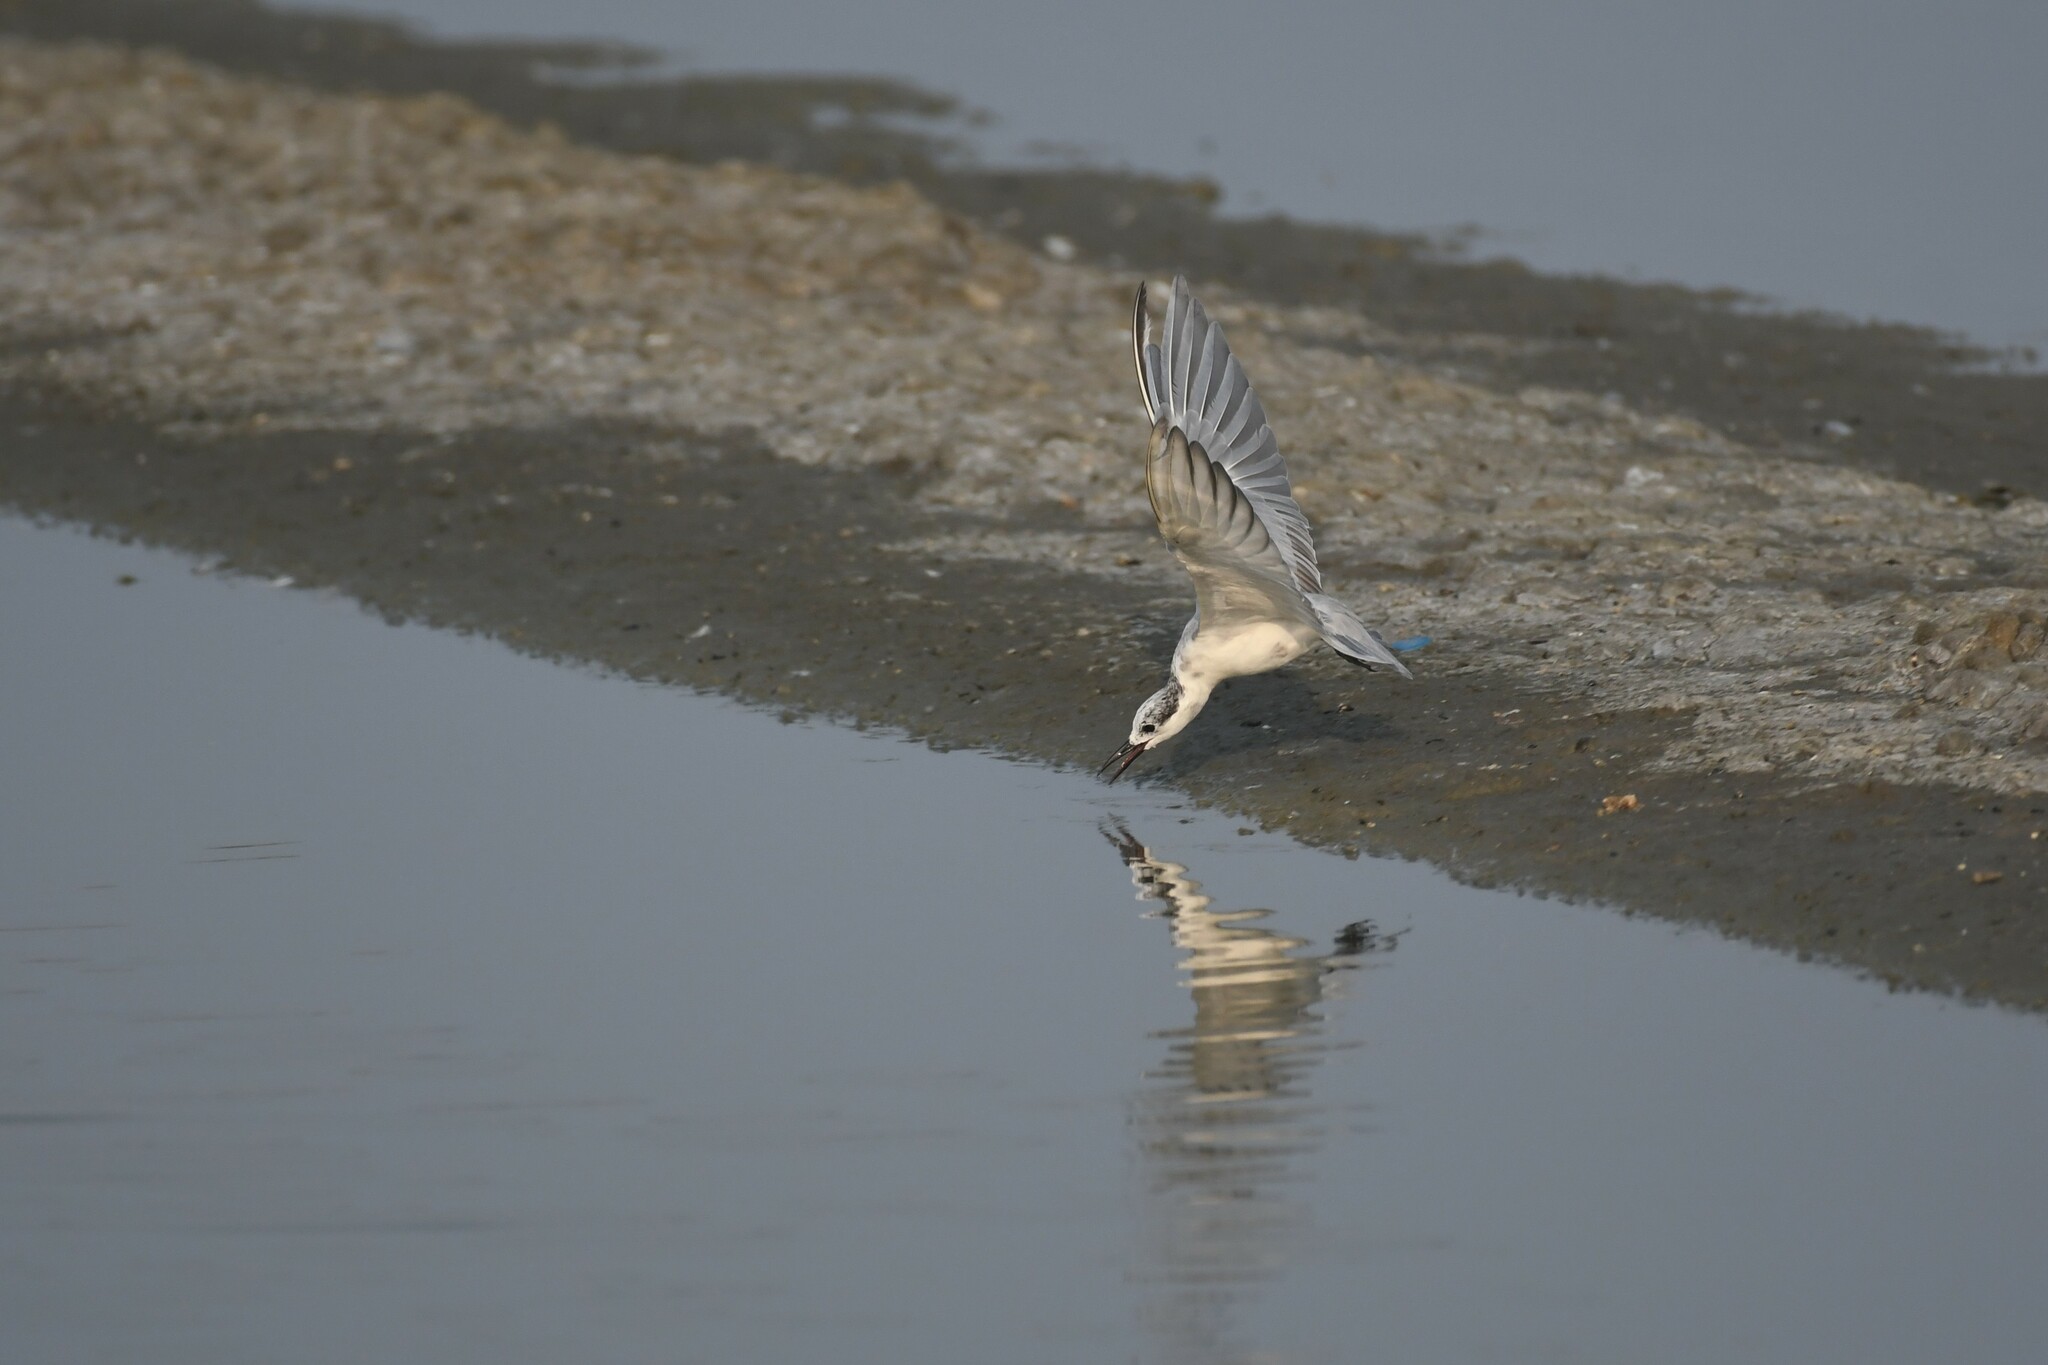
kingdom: Animalia
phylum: Chordata
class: Aves
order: Charadriiformes
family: Laridae
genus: Chlidonias
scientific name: Chlidonias hybrida
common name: Whiskered tern
